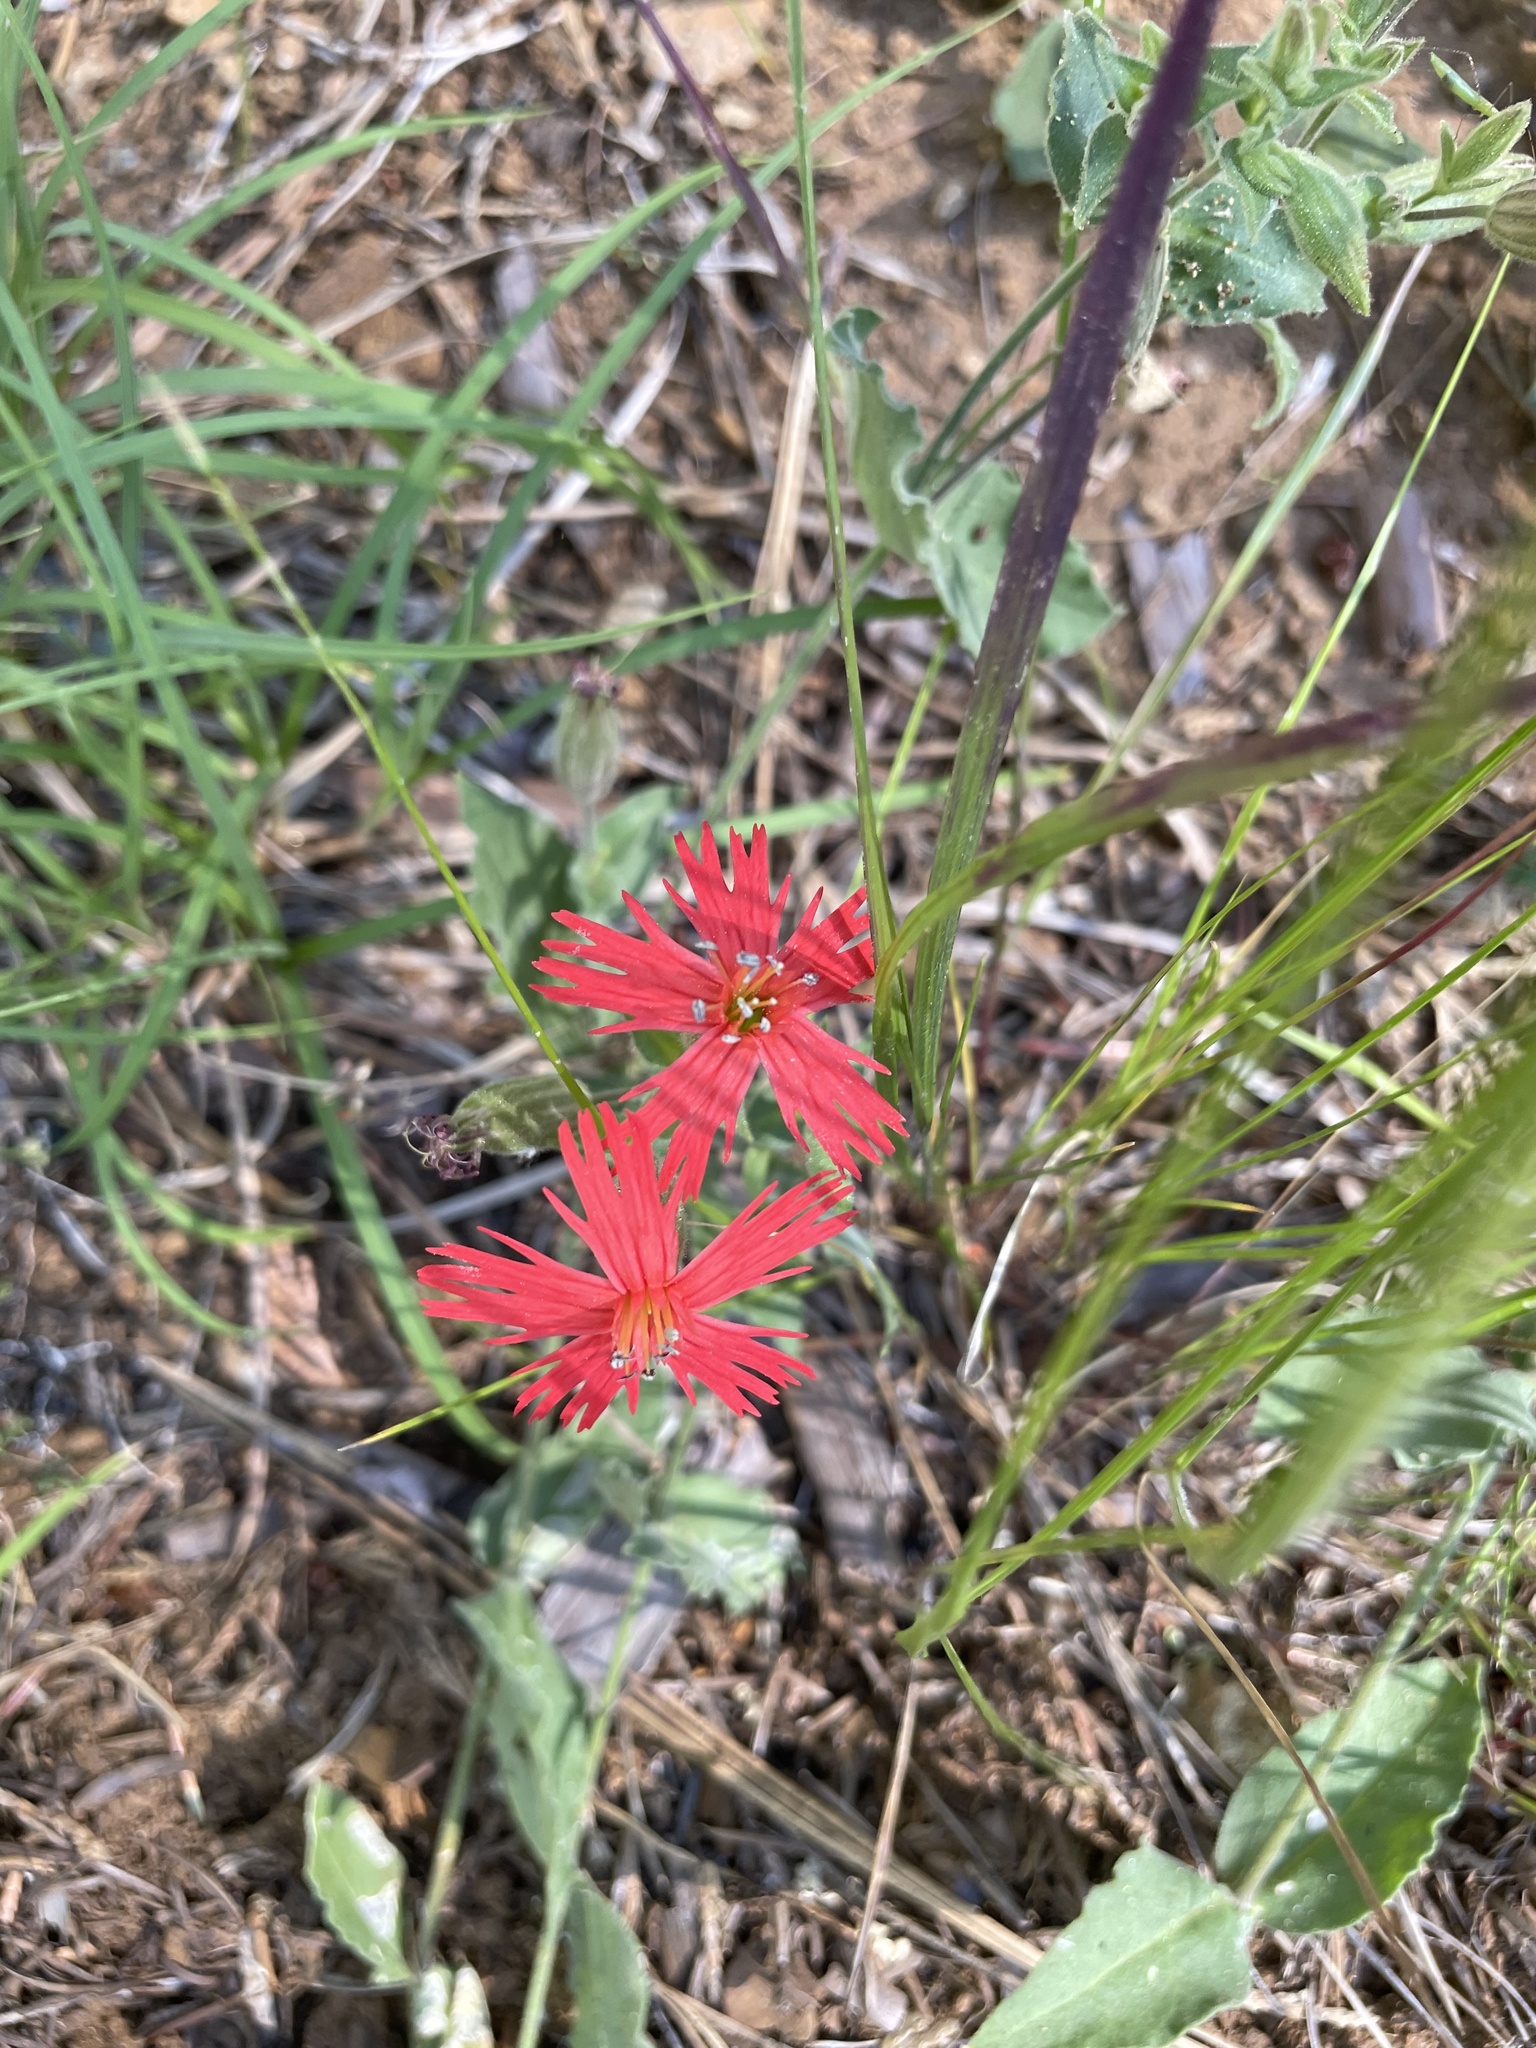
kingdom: Plantae
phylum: Tracheophyta
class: Magnoliopsida
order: Caryophyllales
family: Caryophyllaceae
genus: Silene
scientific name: Silene laciniata
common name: Indian-pink
